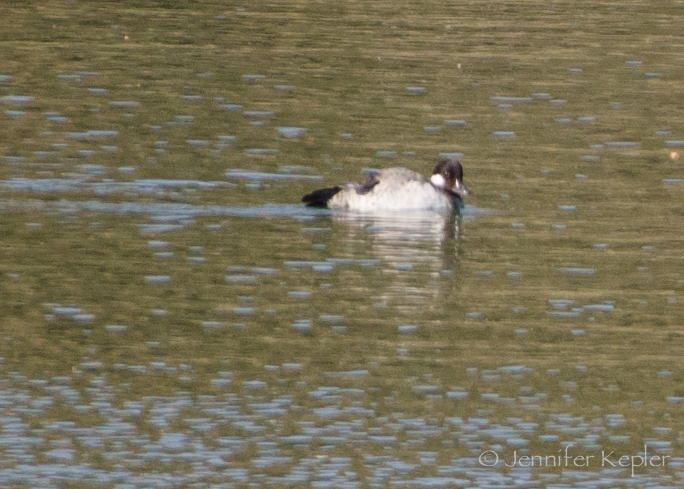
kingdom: Animalia
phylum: Chordata
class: Aves
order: Anseriformes
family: Anatidae
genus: Bucephala
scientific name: Bucephala albeola
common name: Bufflehead
